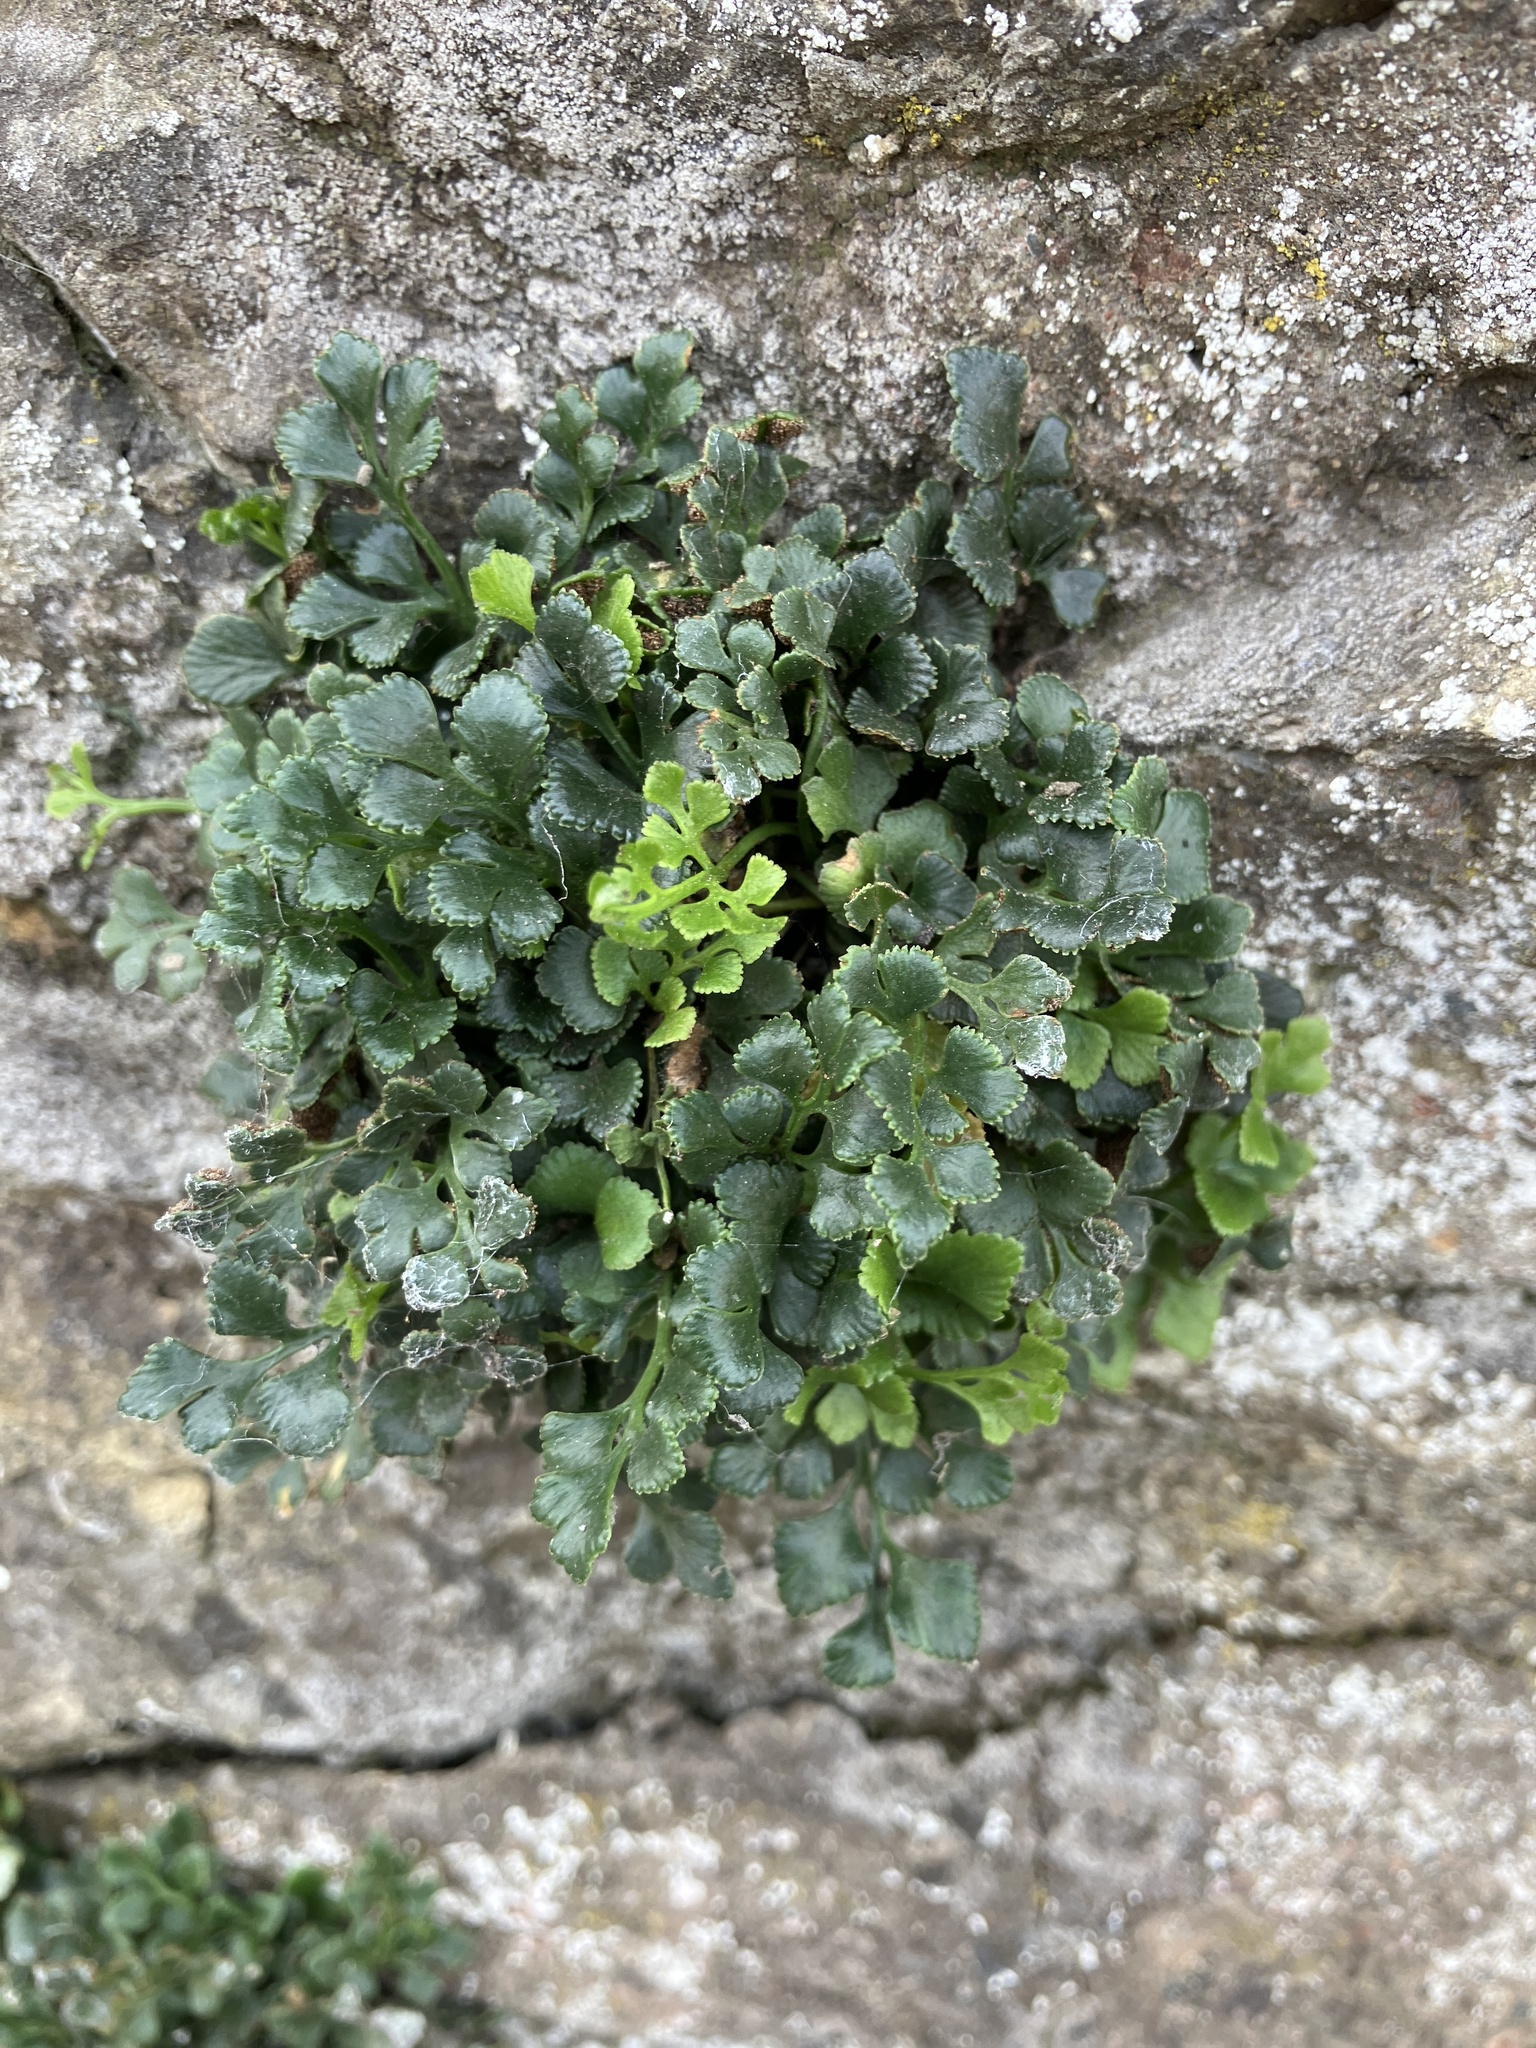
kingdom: Plantae
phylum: Tracheophyta
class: Polypodiopsida
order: Polypodiales
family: Aspleniaceae
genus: Asplenium
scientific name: Asplenium ruta-muraria
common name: Wall-rue
